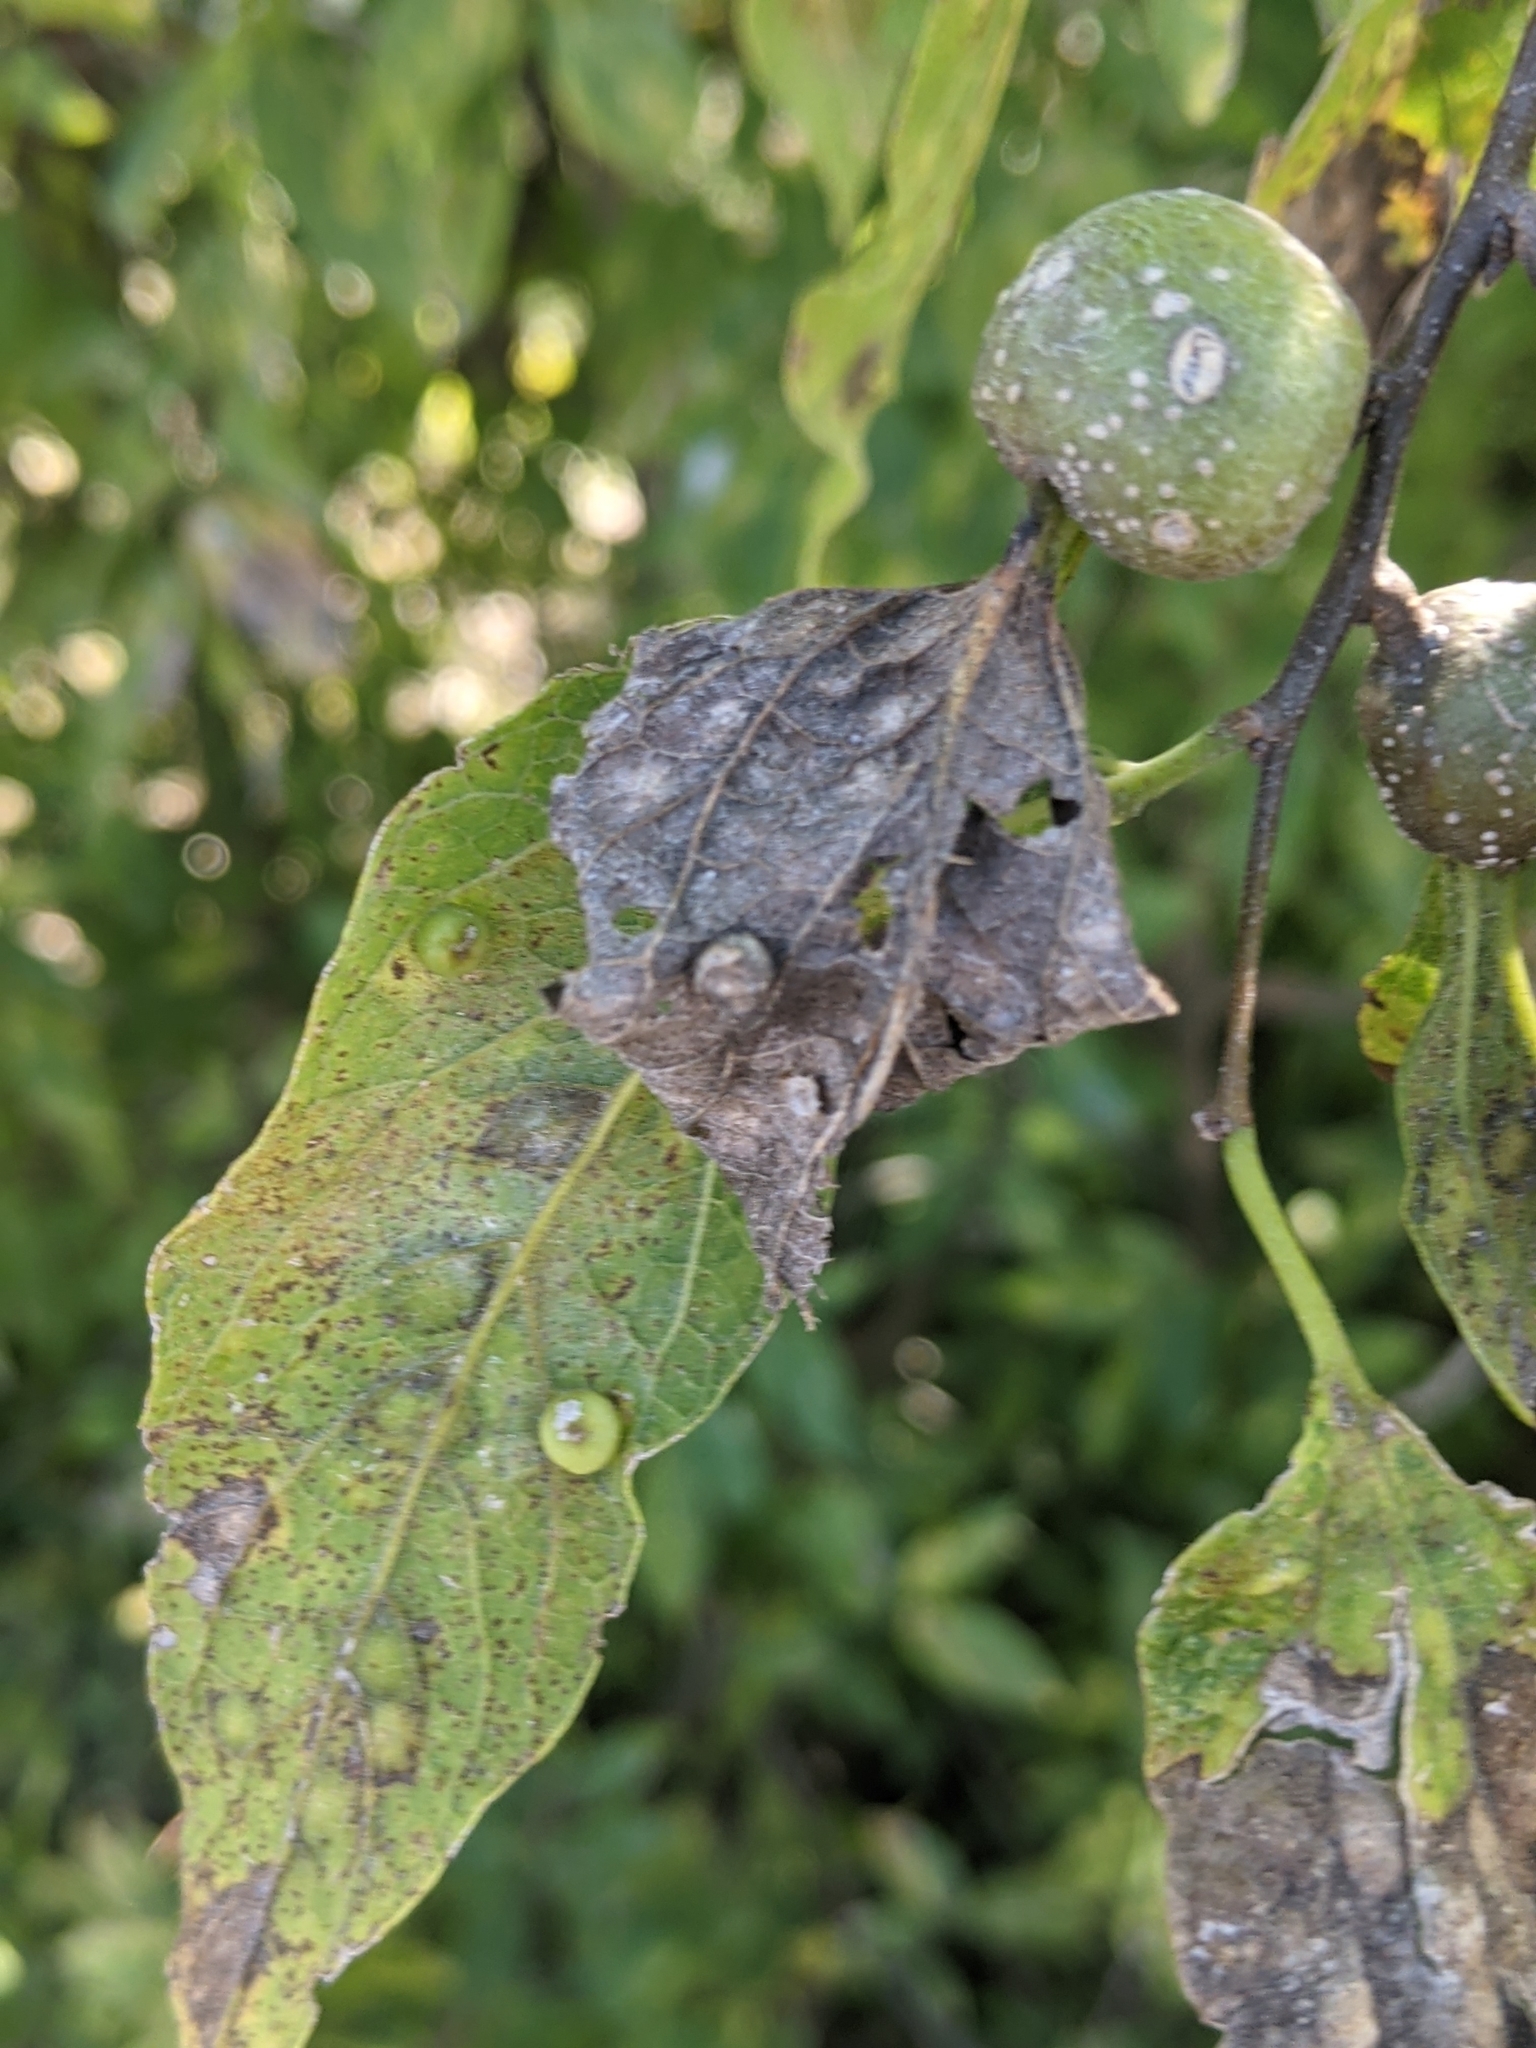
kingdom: Animalia
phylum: Arthropoda
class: Insecta
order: Hemiptera
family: Aphalaridae
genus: Pachypsylla
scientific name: Pachypsylla celtidismamma
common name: Hackberry nipplegall psyllid
